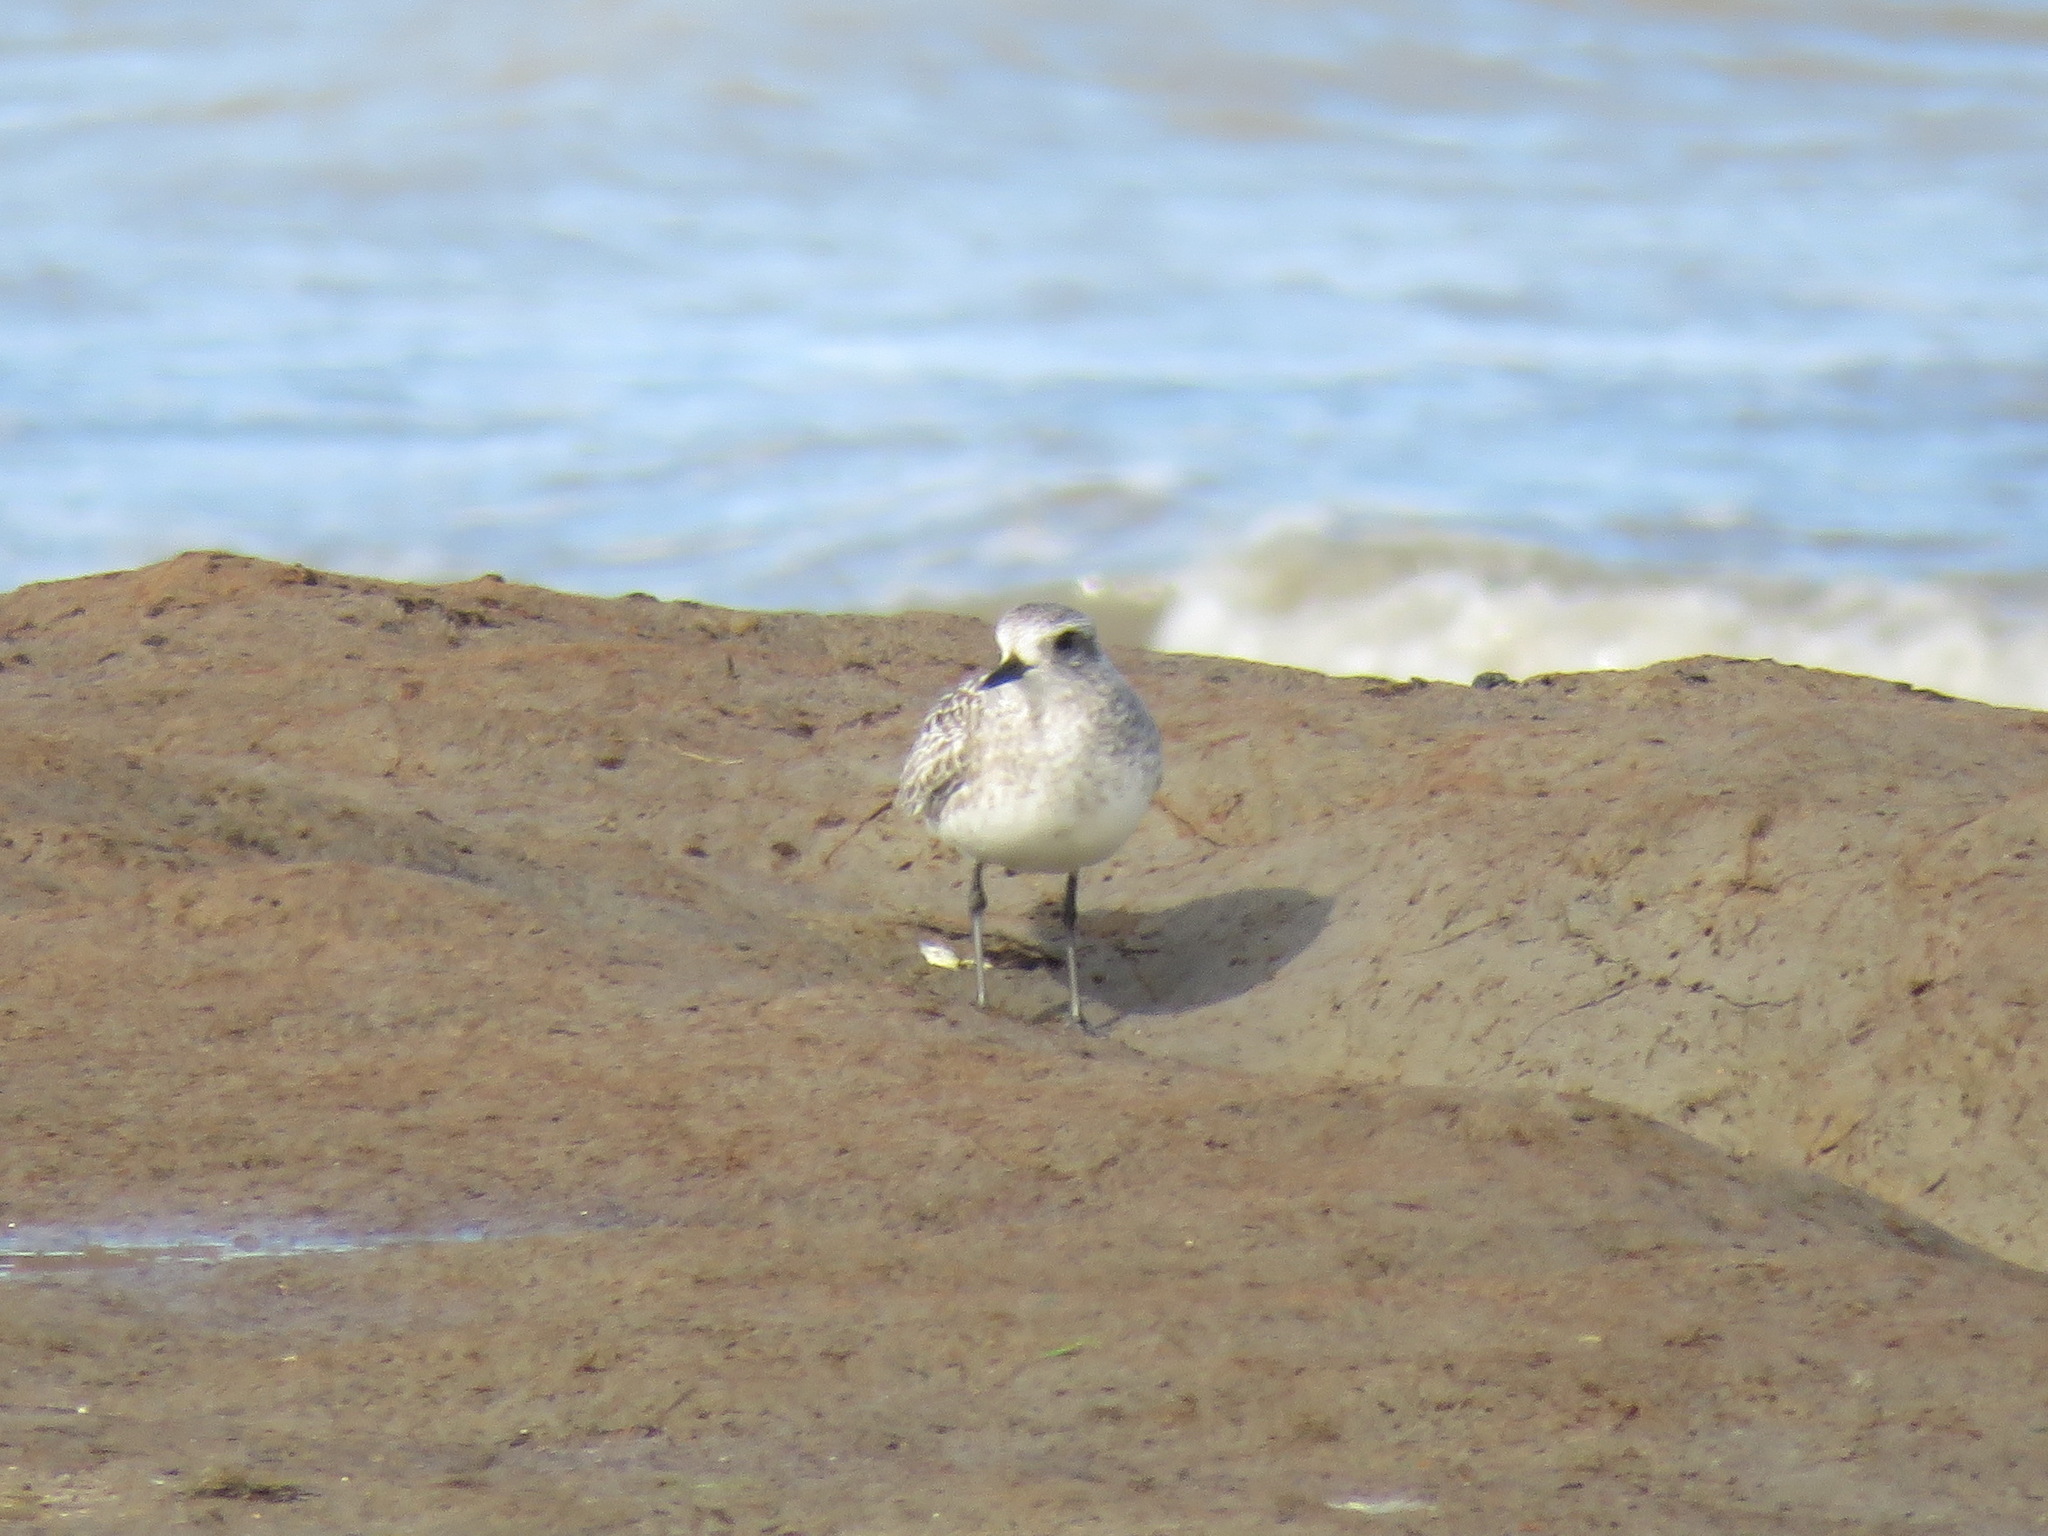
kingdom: Animalia
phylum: Chordata
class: Aves
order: Charadriiformes
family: Charadriidae
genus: Pluvialis
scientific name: Pluvialis squatarola
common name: Grey plover
